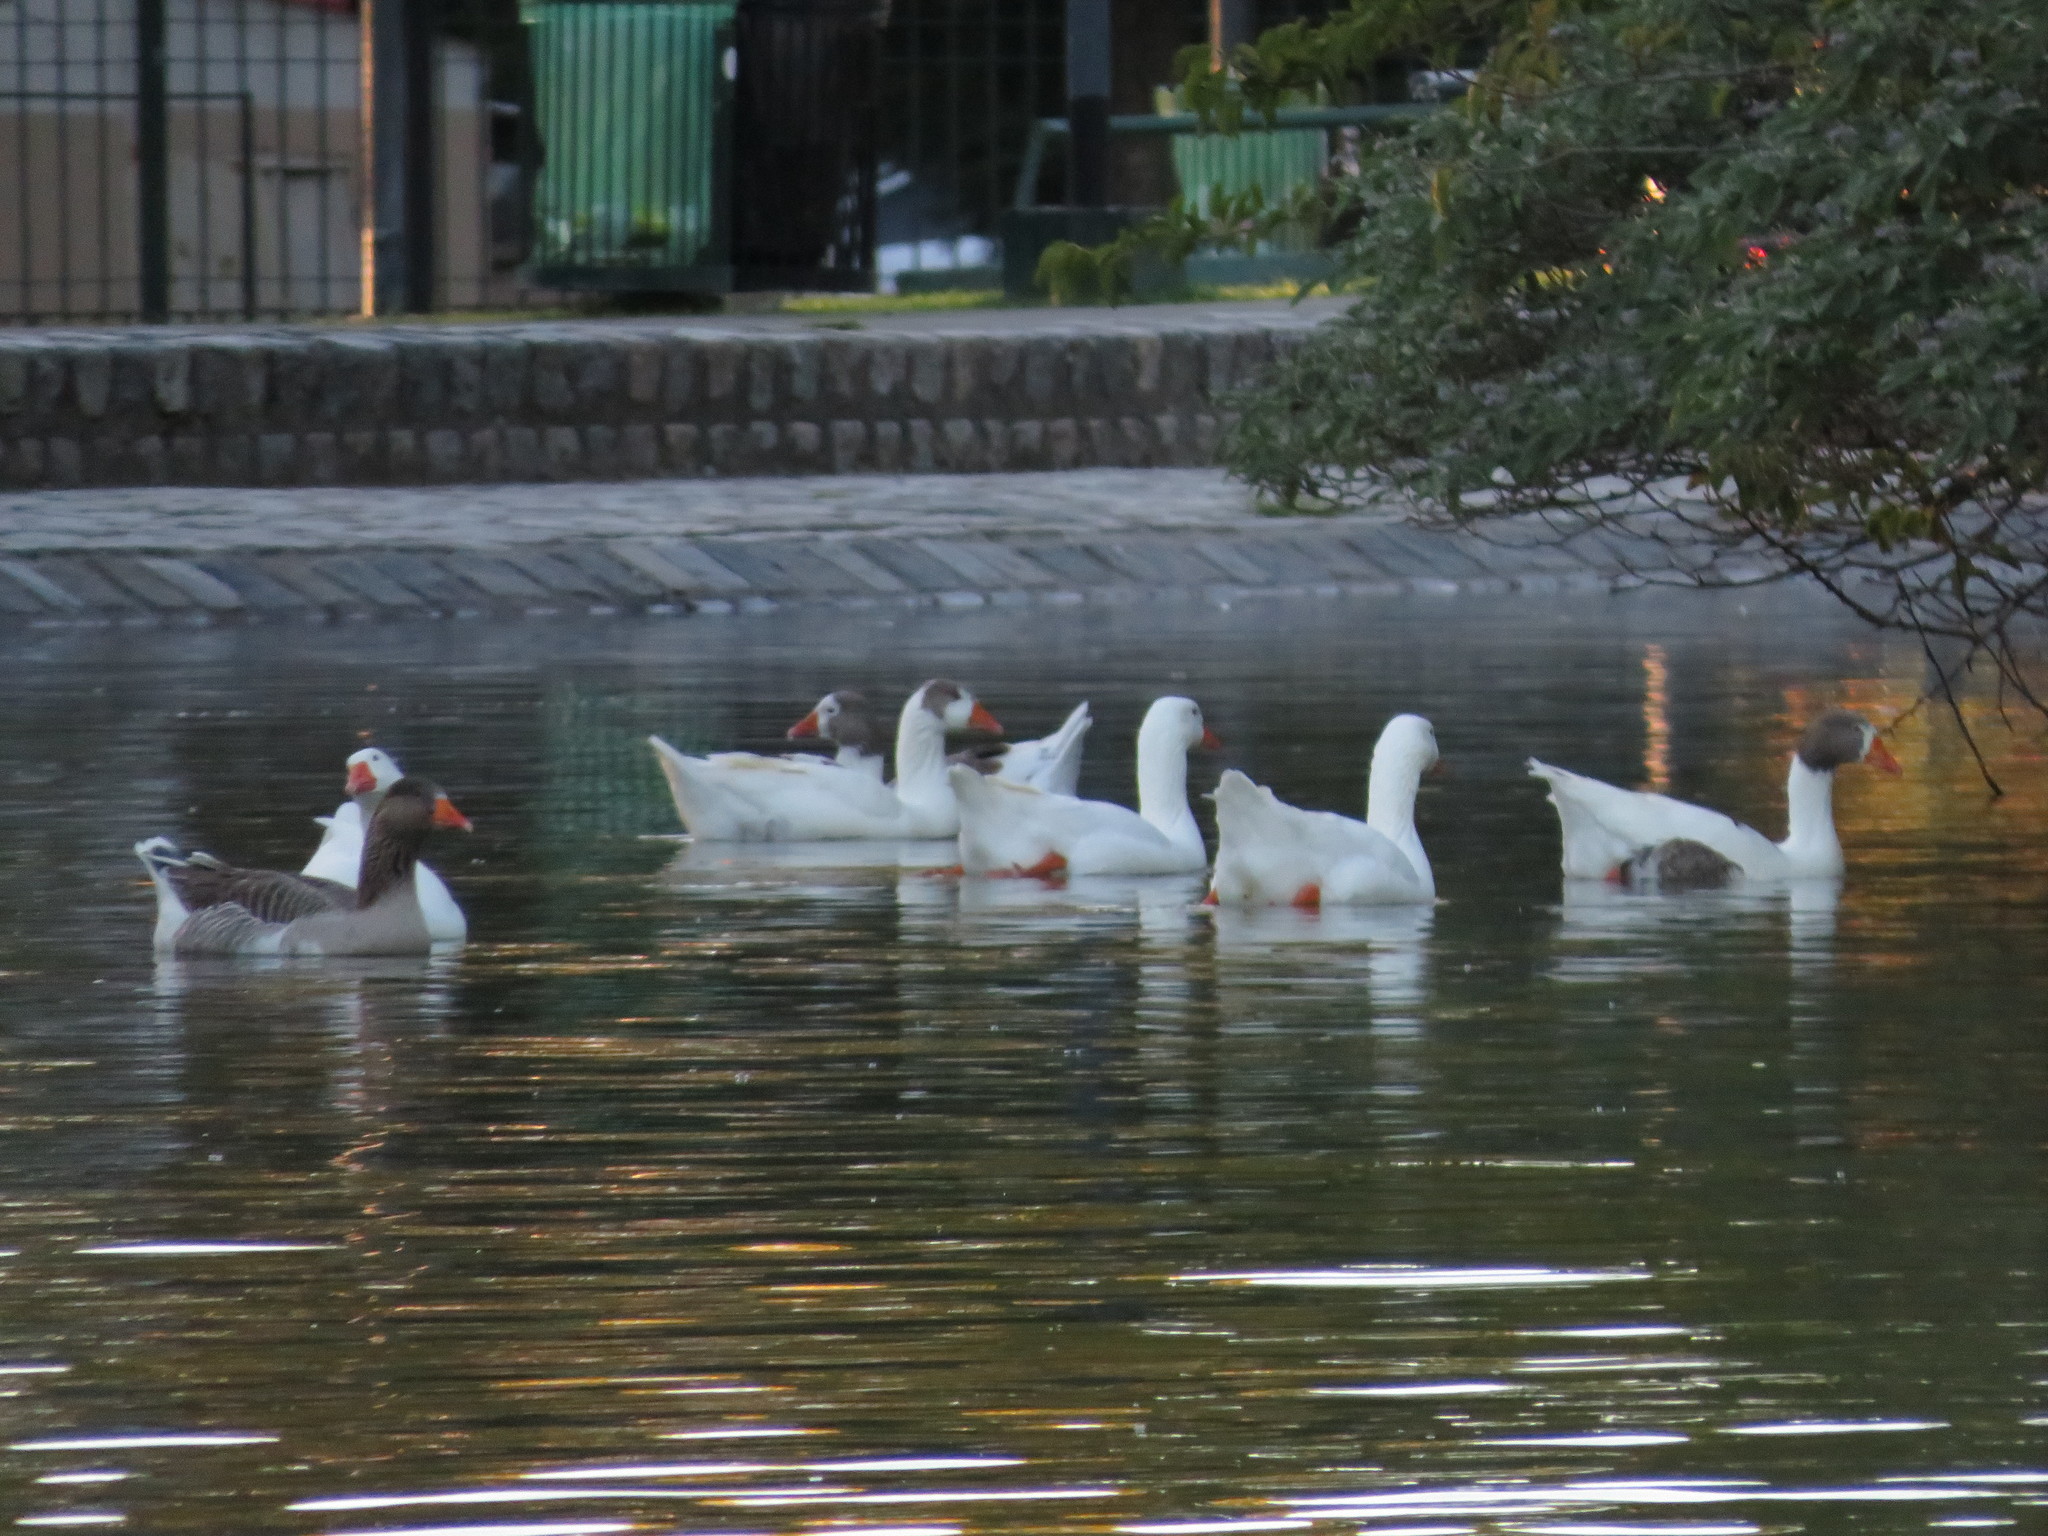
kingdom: Animalia
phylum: Chordata
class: Aves
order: Anseriformes
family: Anatidae
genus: Anser
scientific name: Anser anser
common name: Greylag goose
